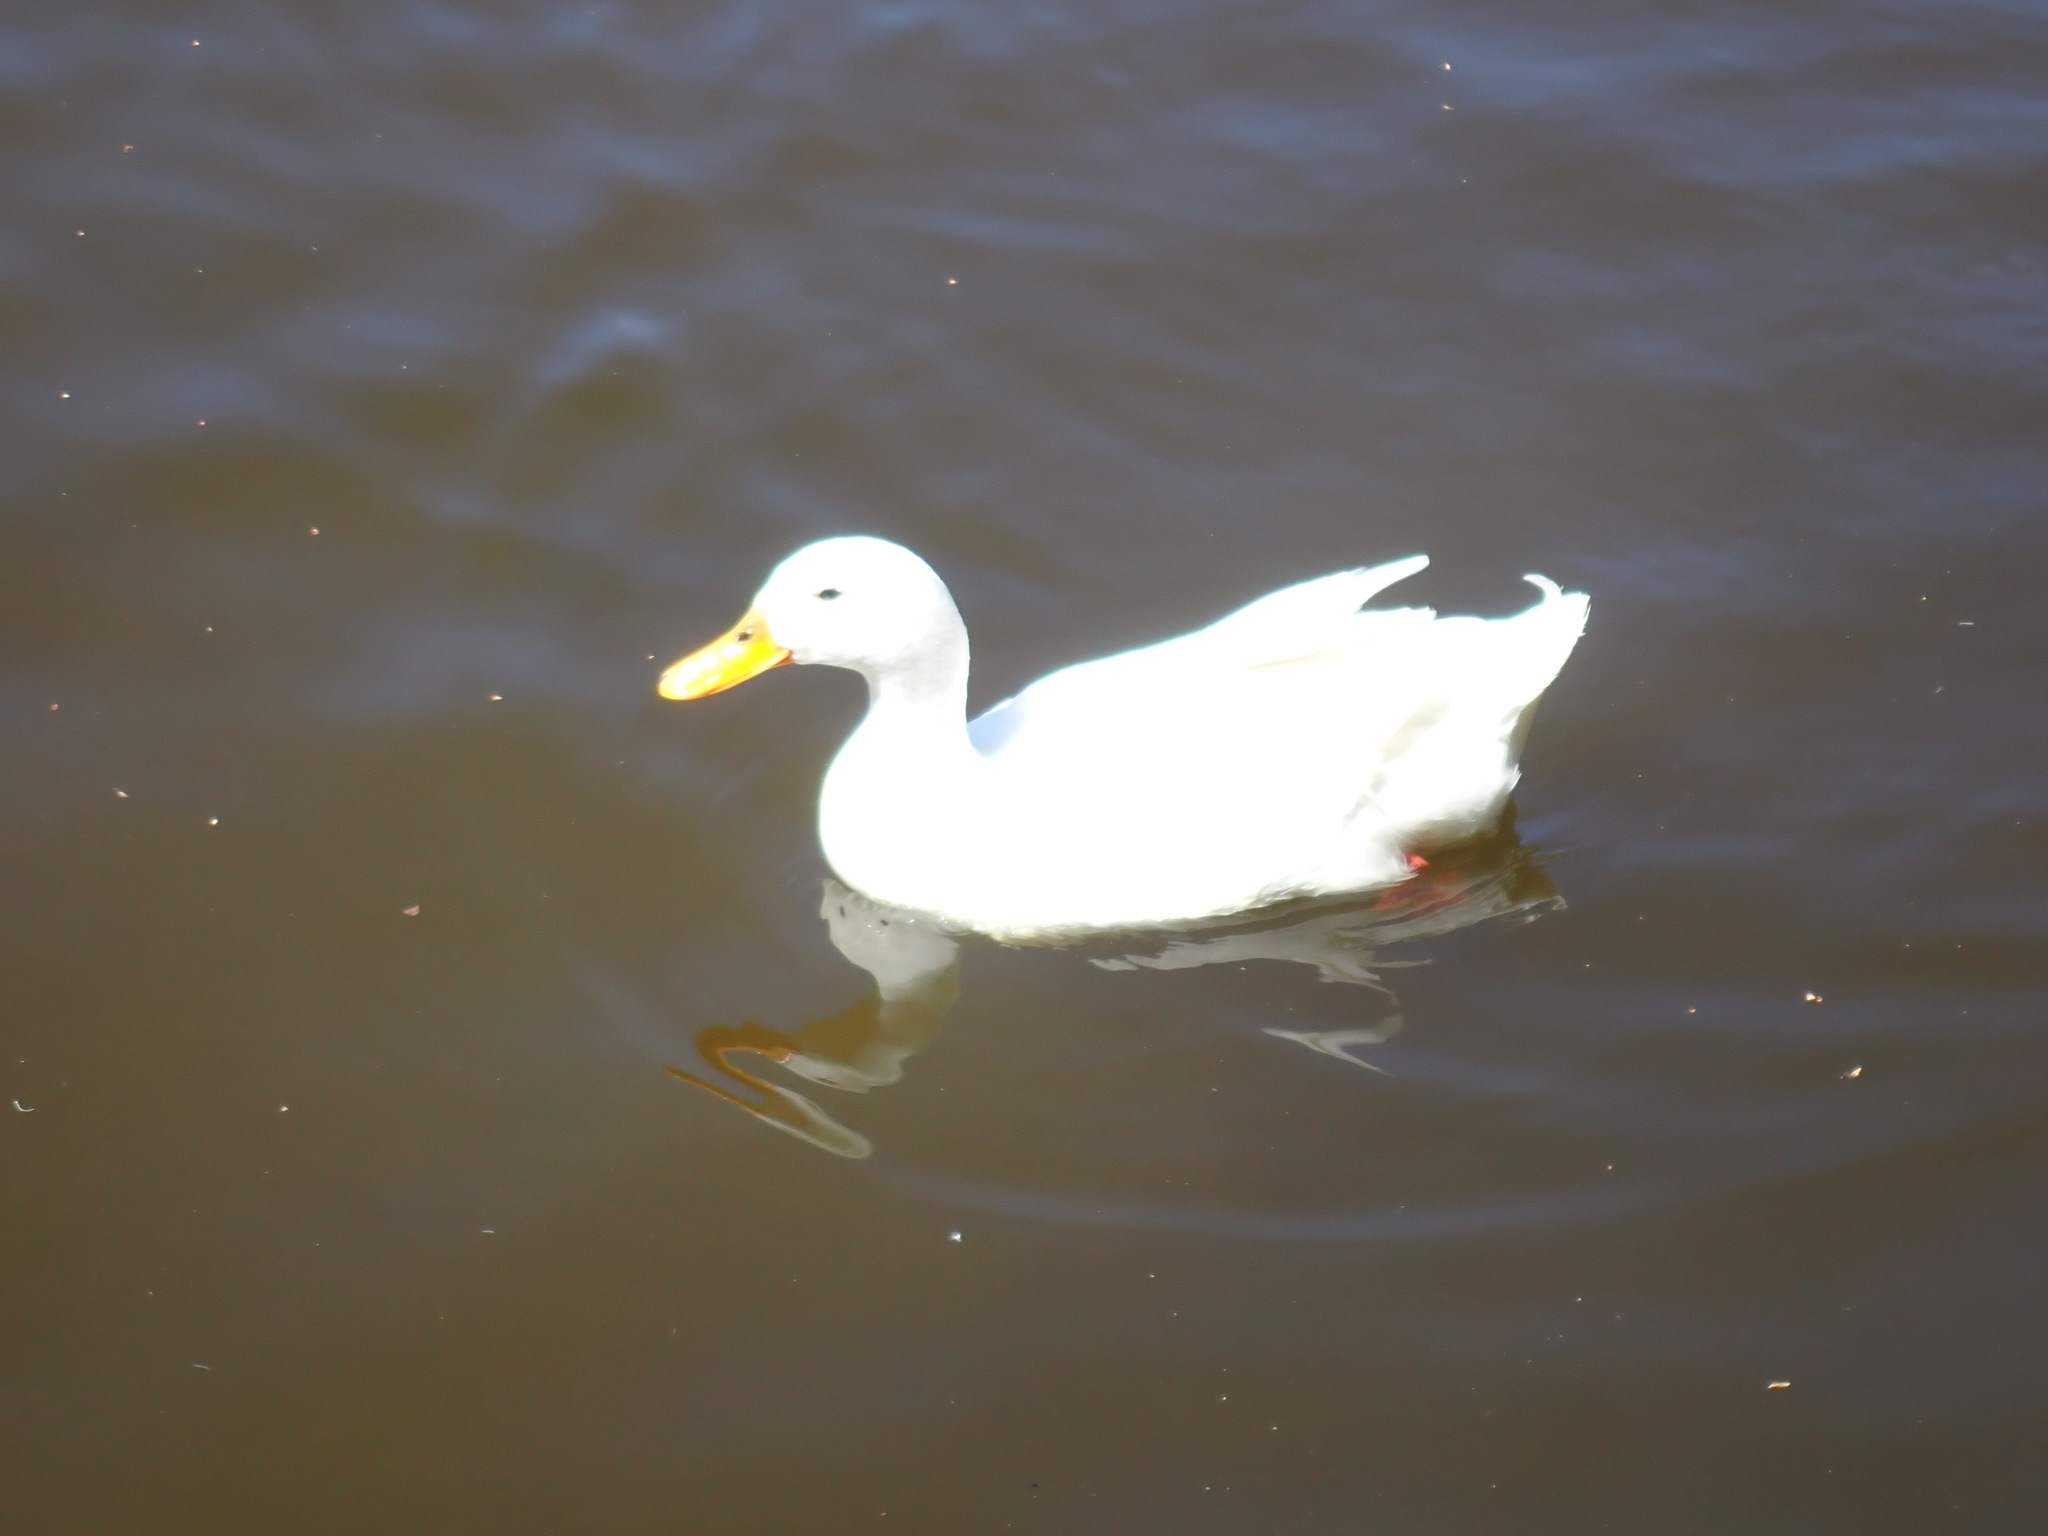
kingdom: Animalia
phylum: Chordata
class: Aves
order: Anseriformes
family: Anatidae
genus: Anas
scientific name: Anas platyrhynchos
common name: Mallard
